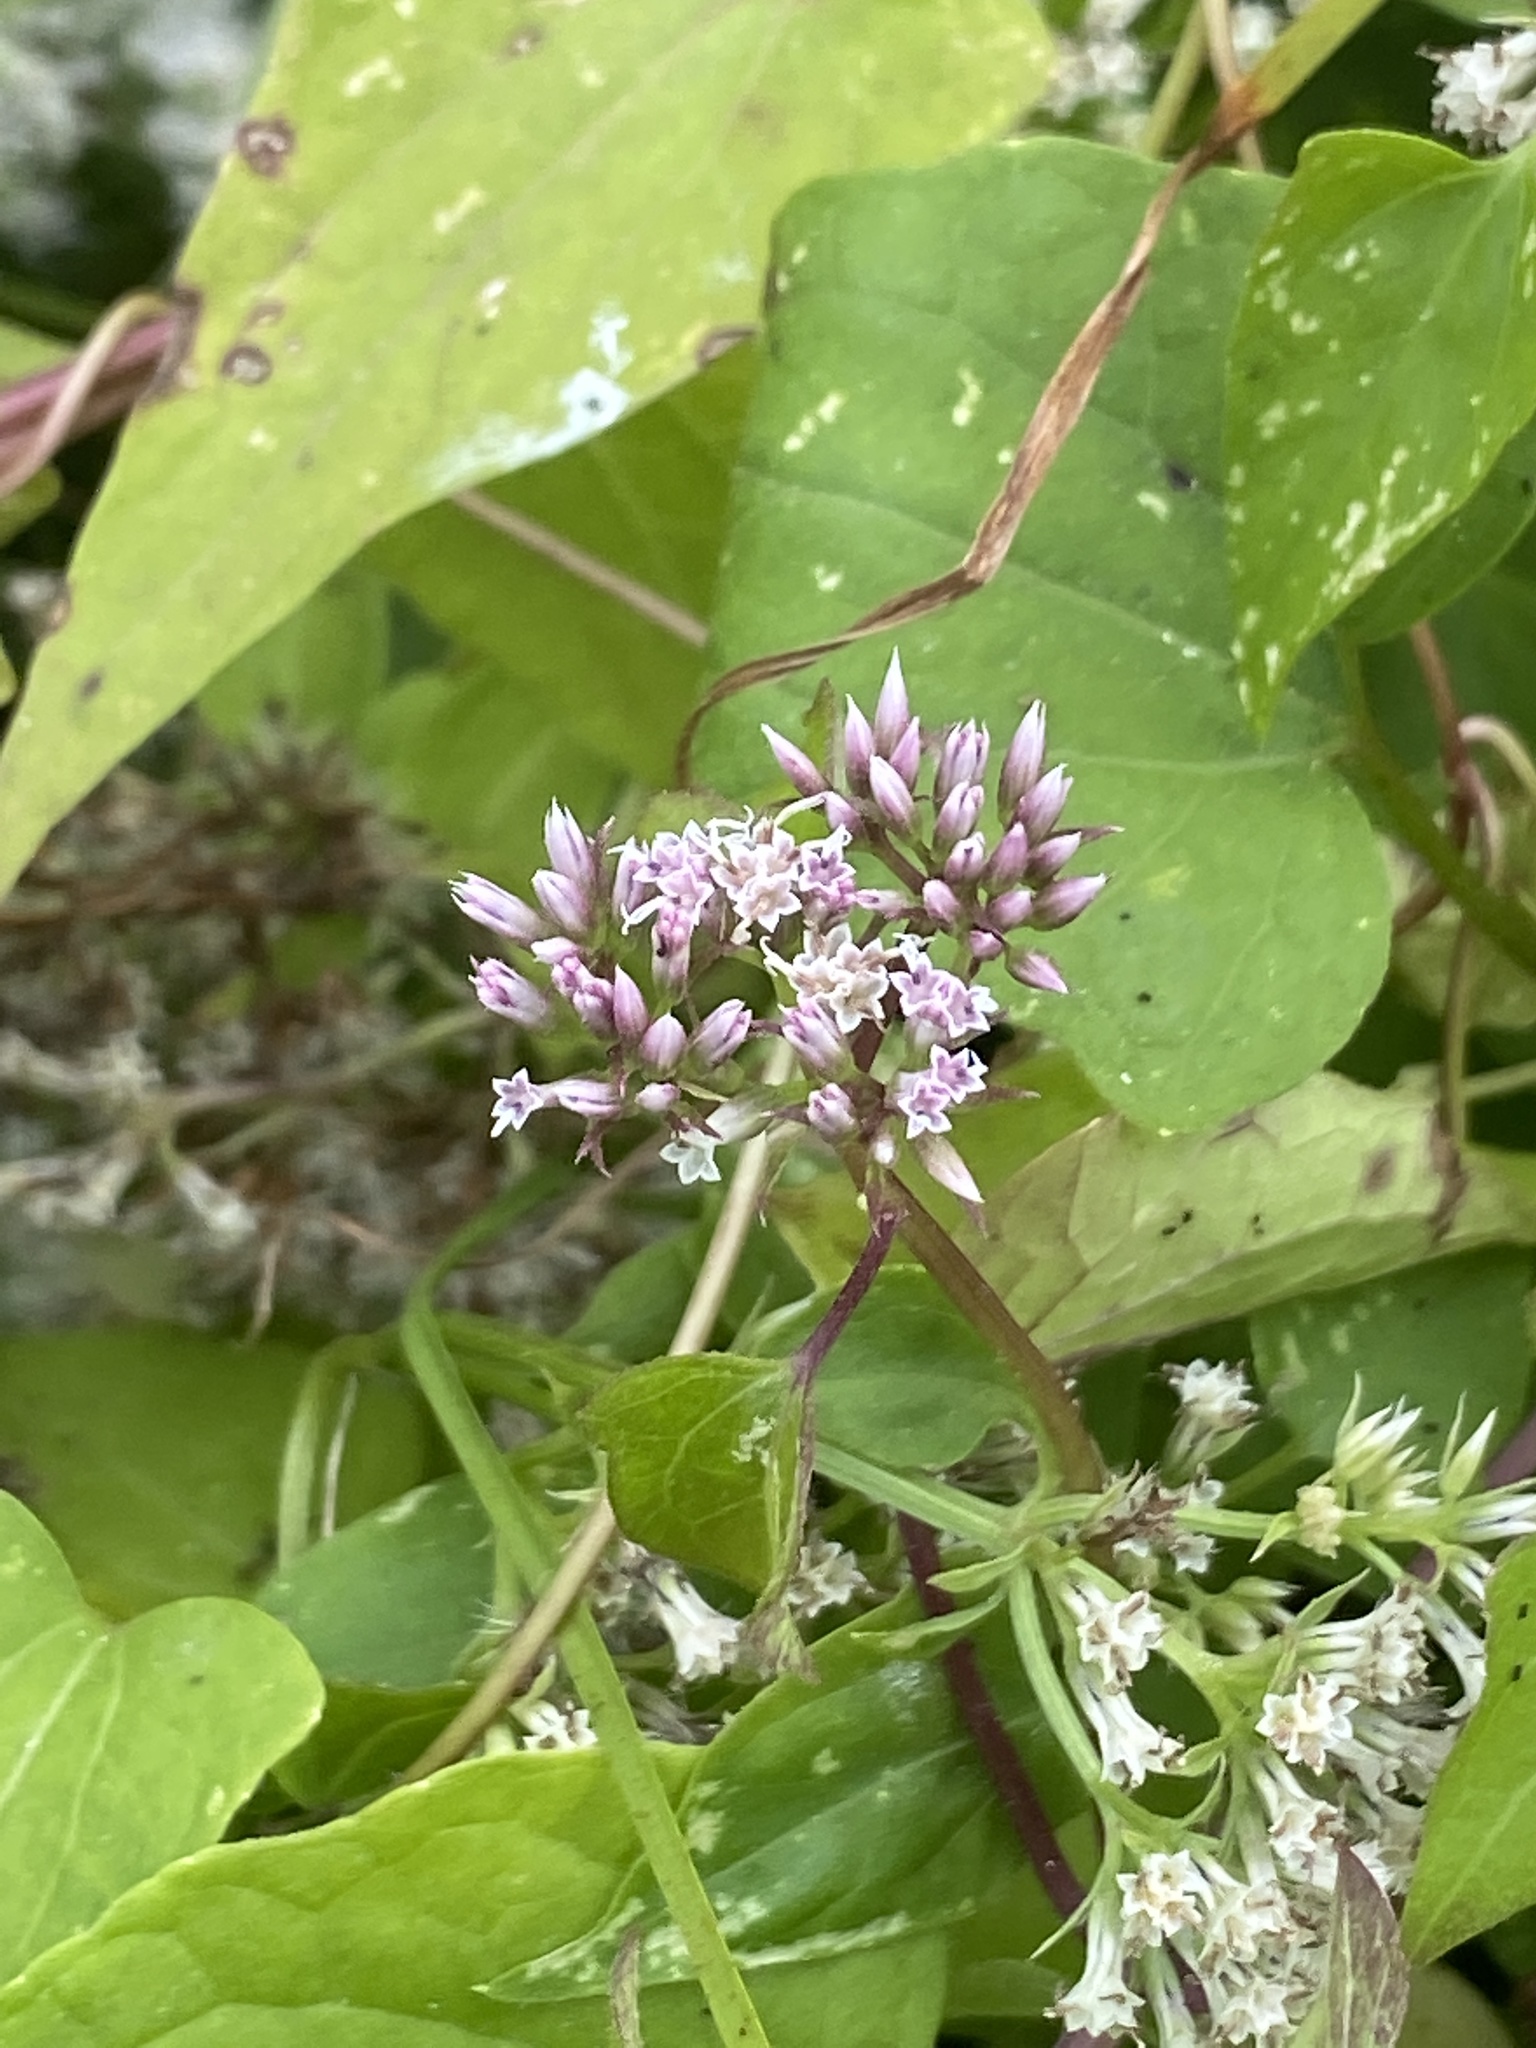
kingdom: Plantae
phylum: Tracheophyta
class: Magnoliopsida
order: Asterales
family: Asteraceae
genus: Mikania
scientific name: Mikania scandens
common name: Climbing hempvine
